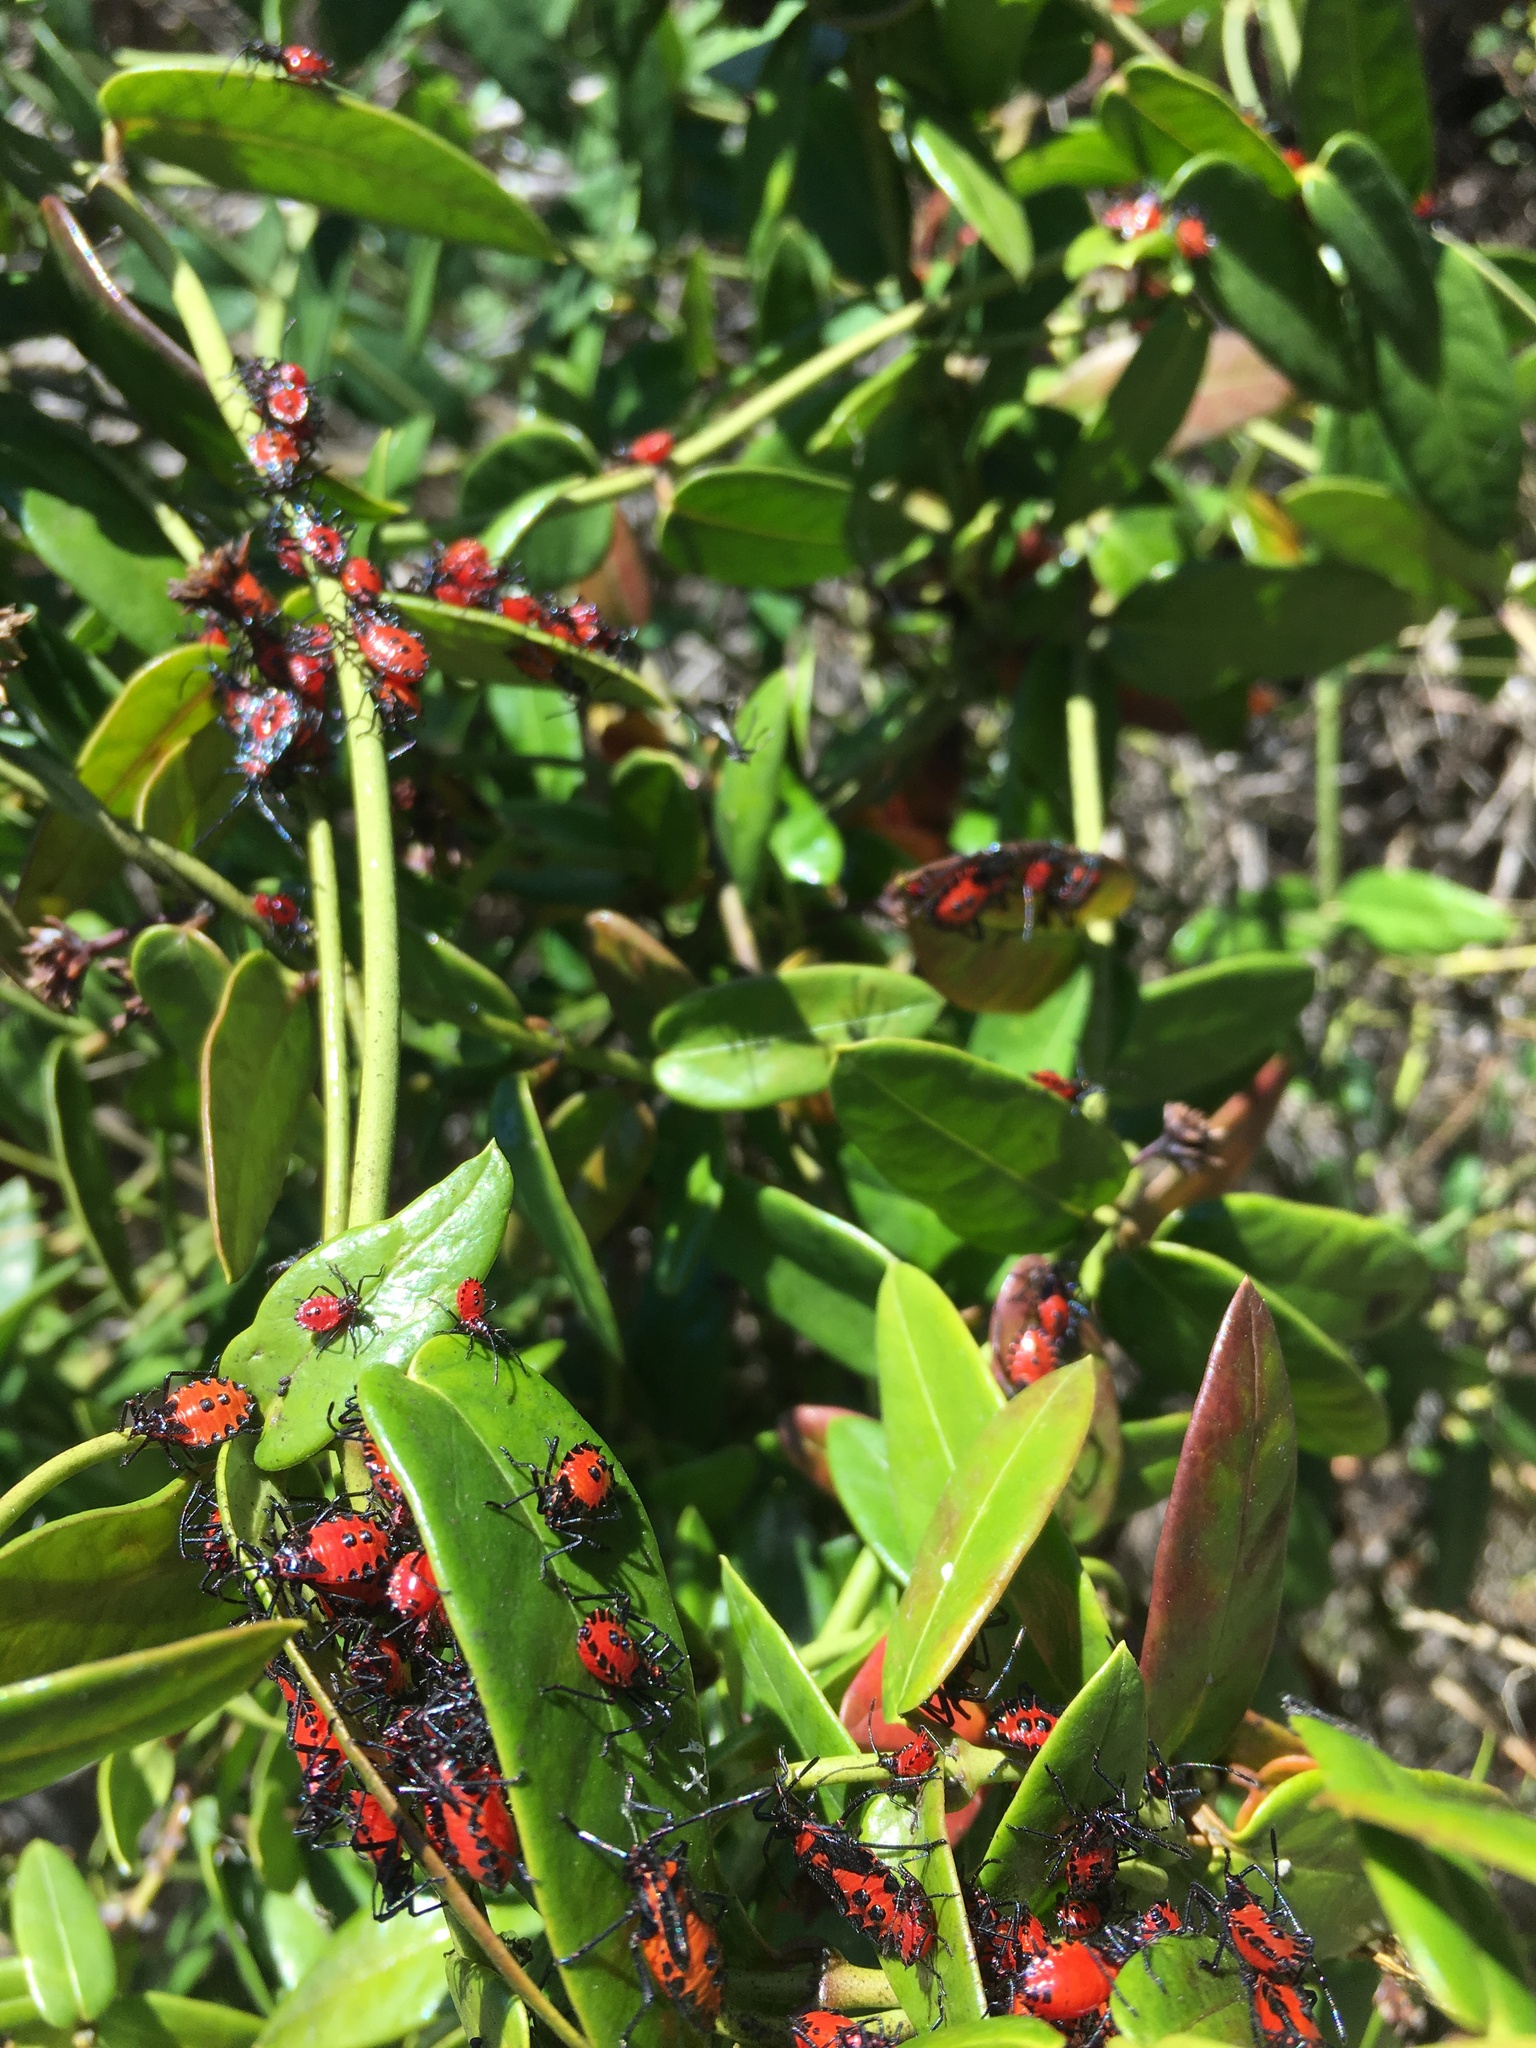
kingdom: Animalia
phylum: Arthropoda
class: Insecta
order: Hemiptera
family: Coreidae
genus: Spartocera
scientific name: Spartocera rubicunda
